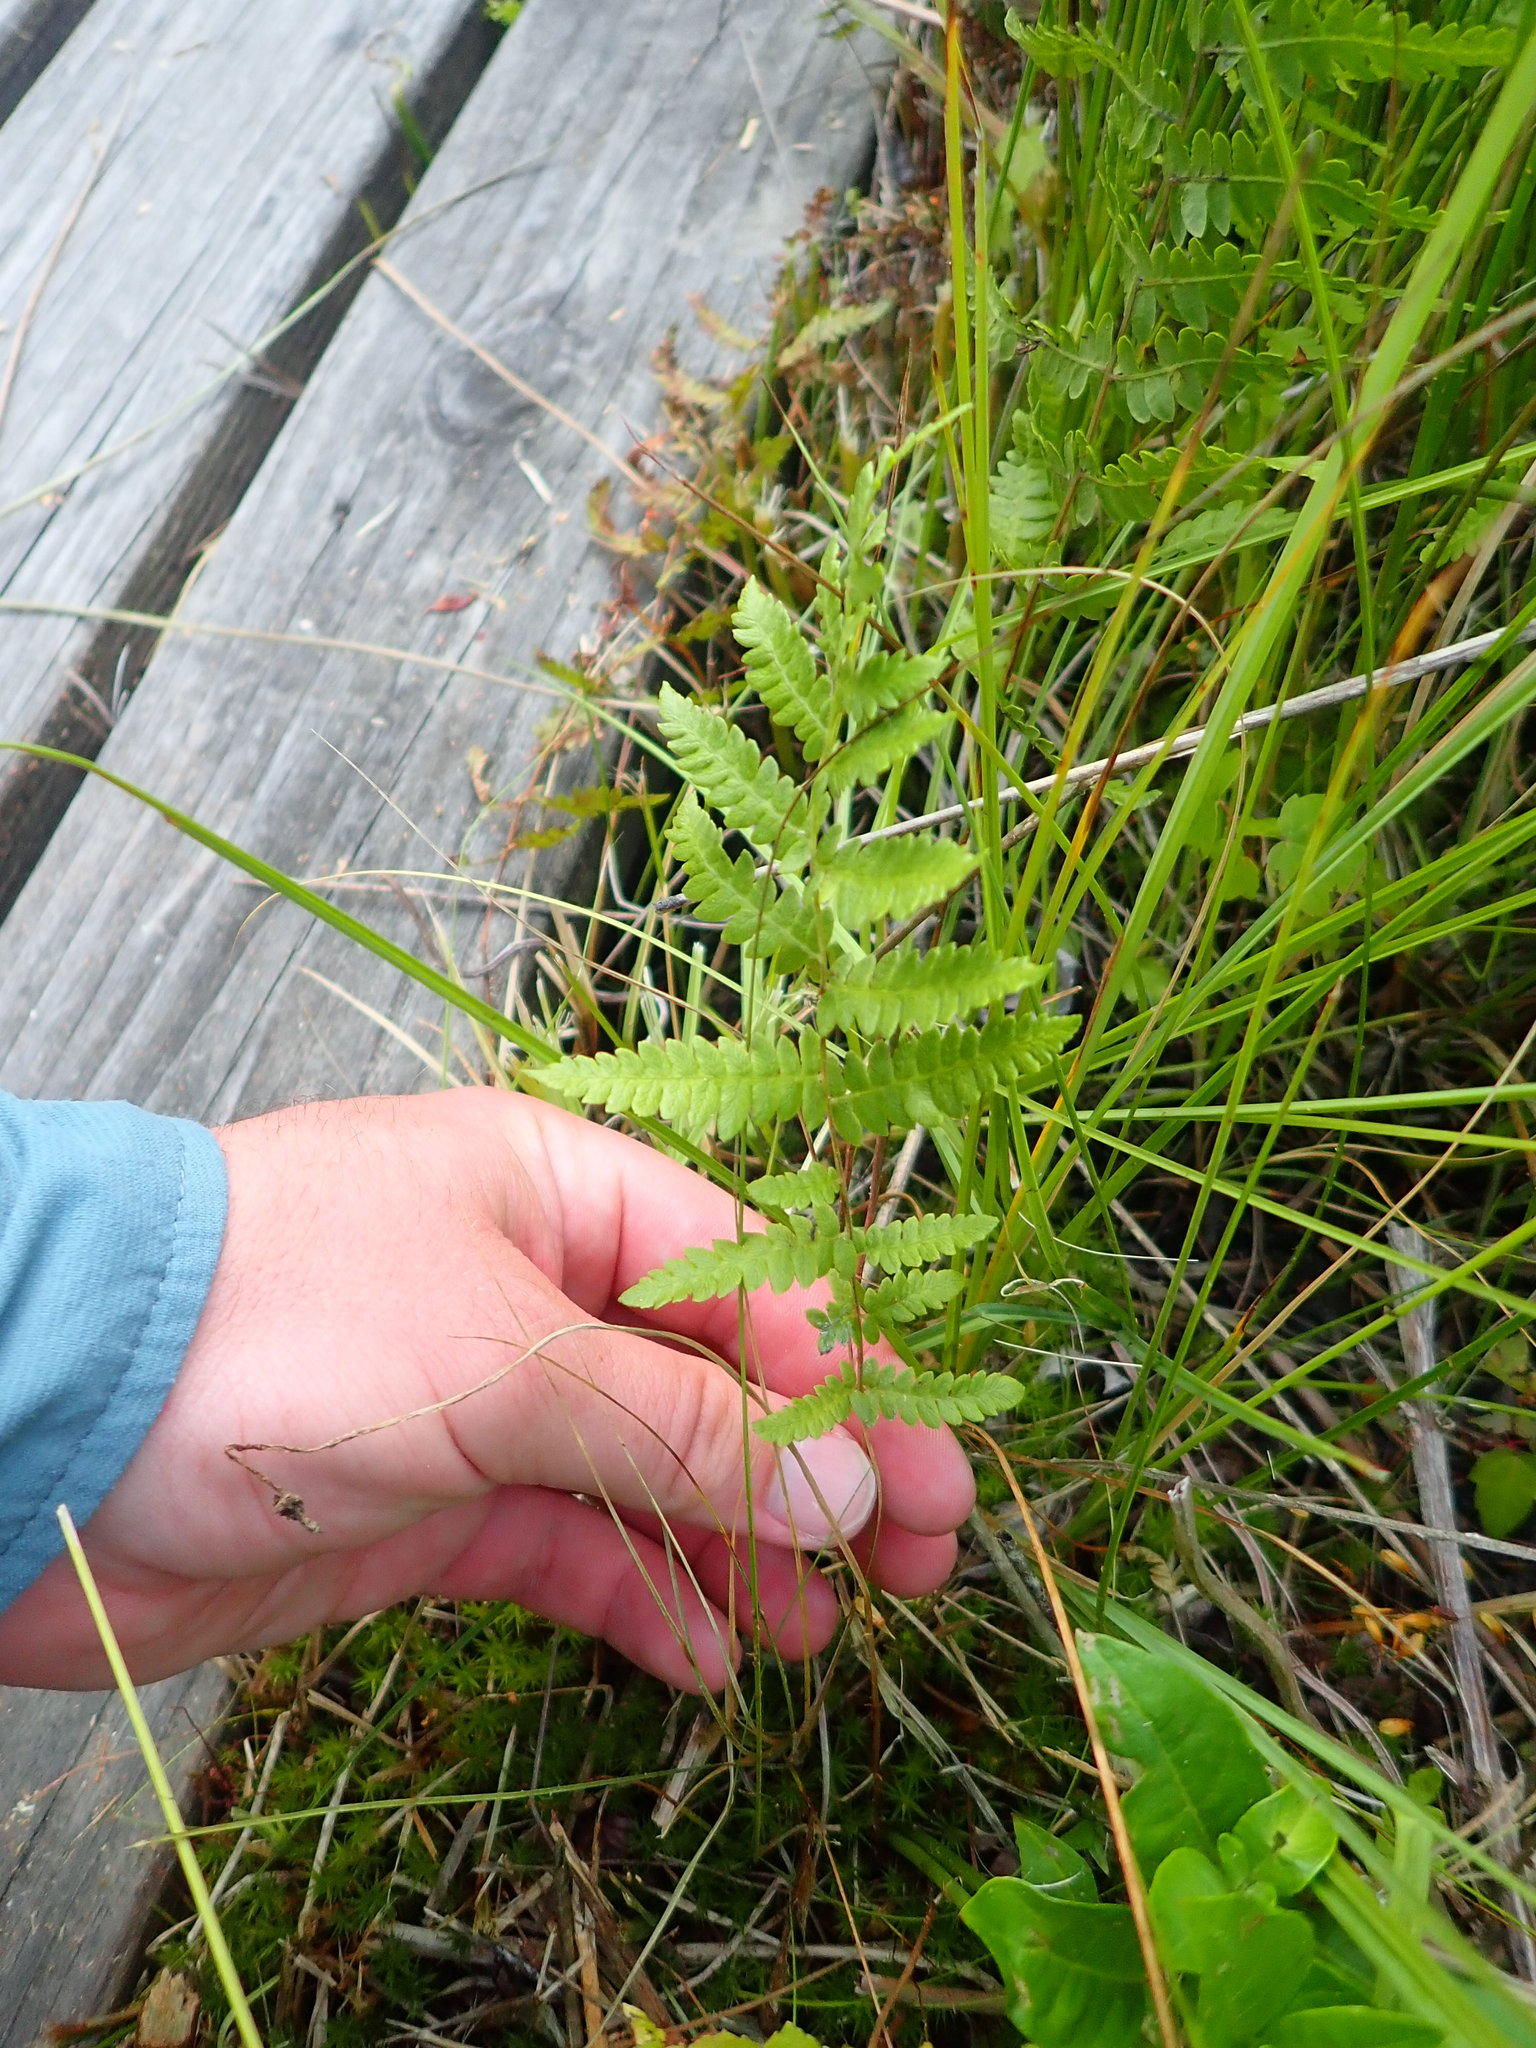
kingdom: Plantae
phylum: Tracheophyta
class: Polypodiopsida
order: Polypodiales
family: Thelypteridaceae
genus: Thelypteris
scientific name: Thelypteris palustris
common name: Marsh fern
